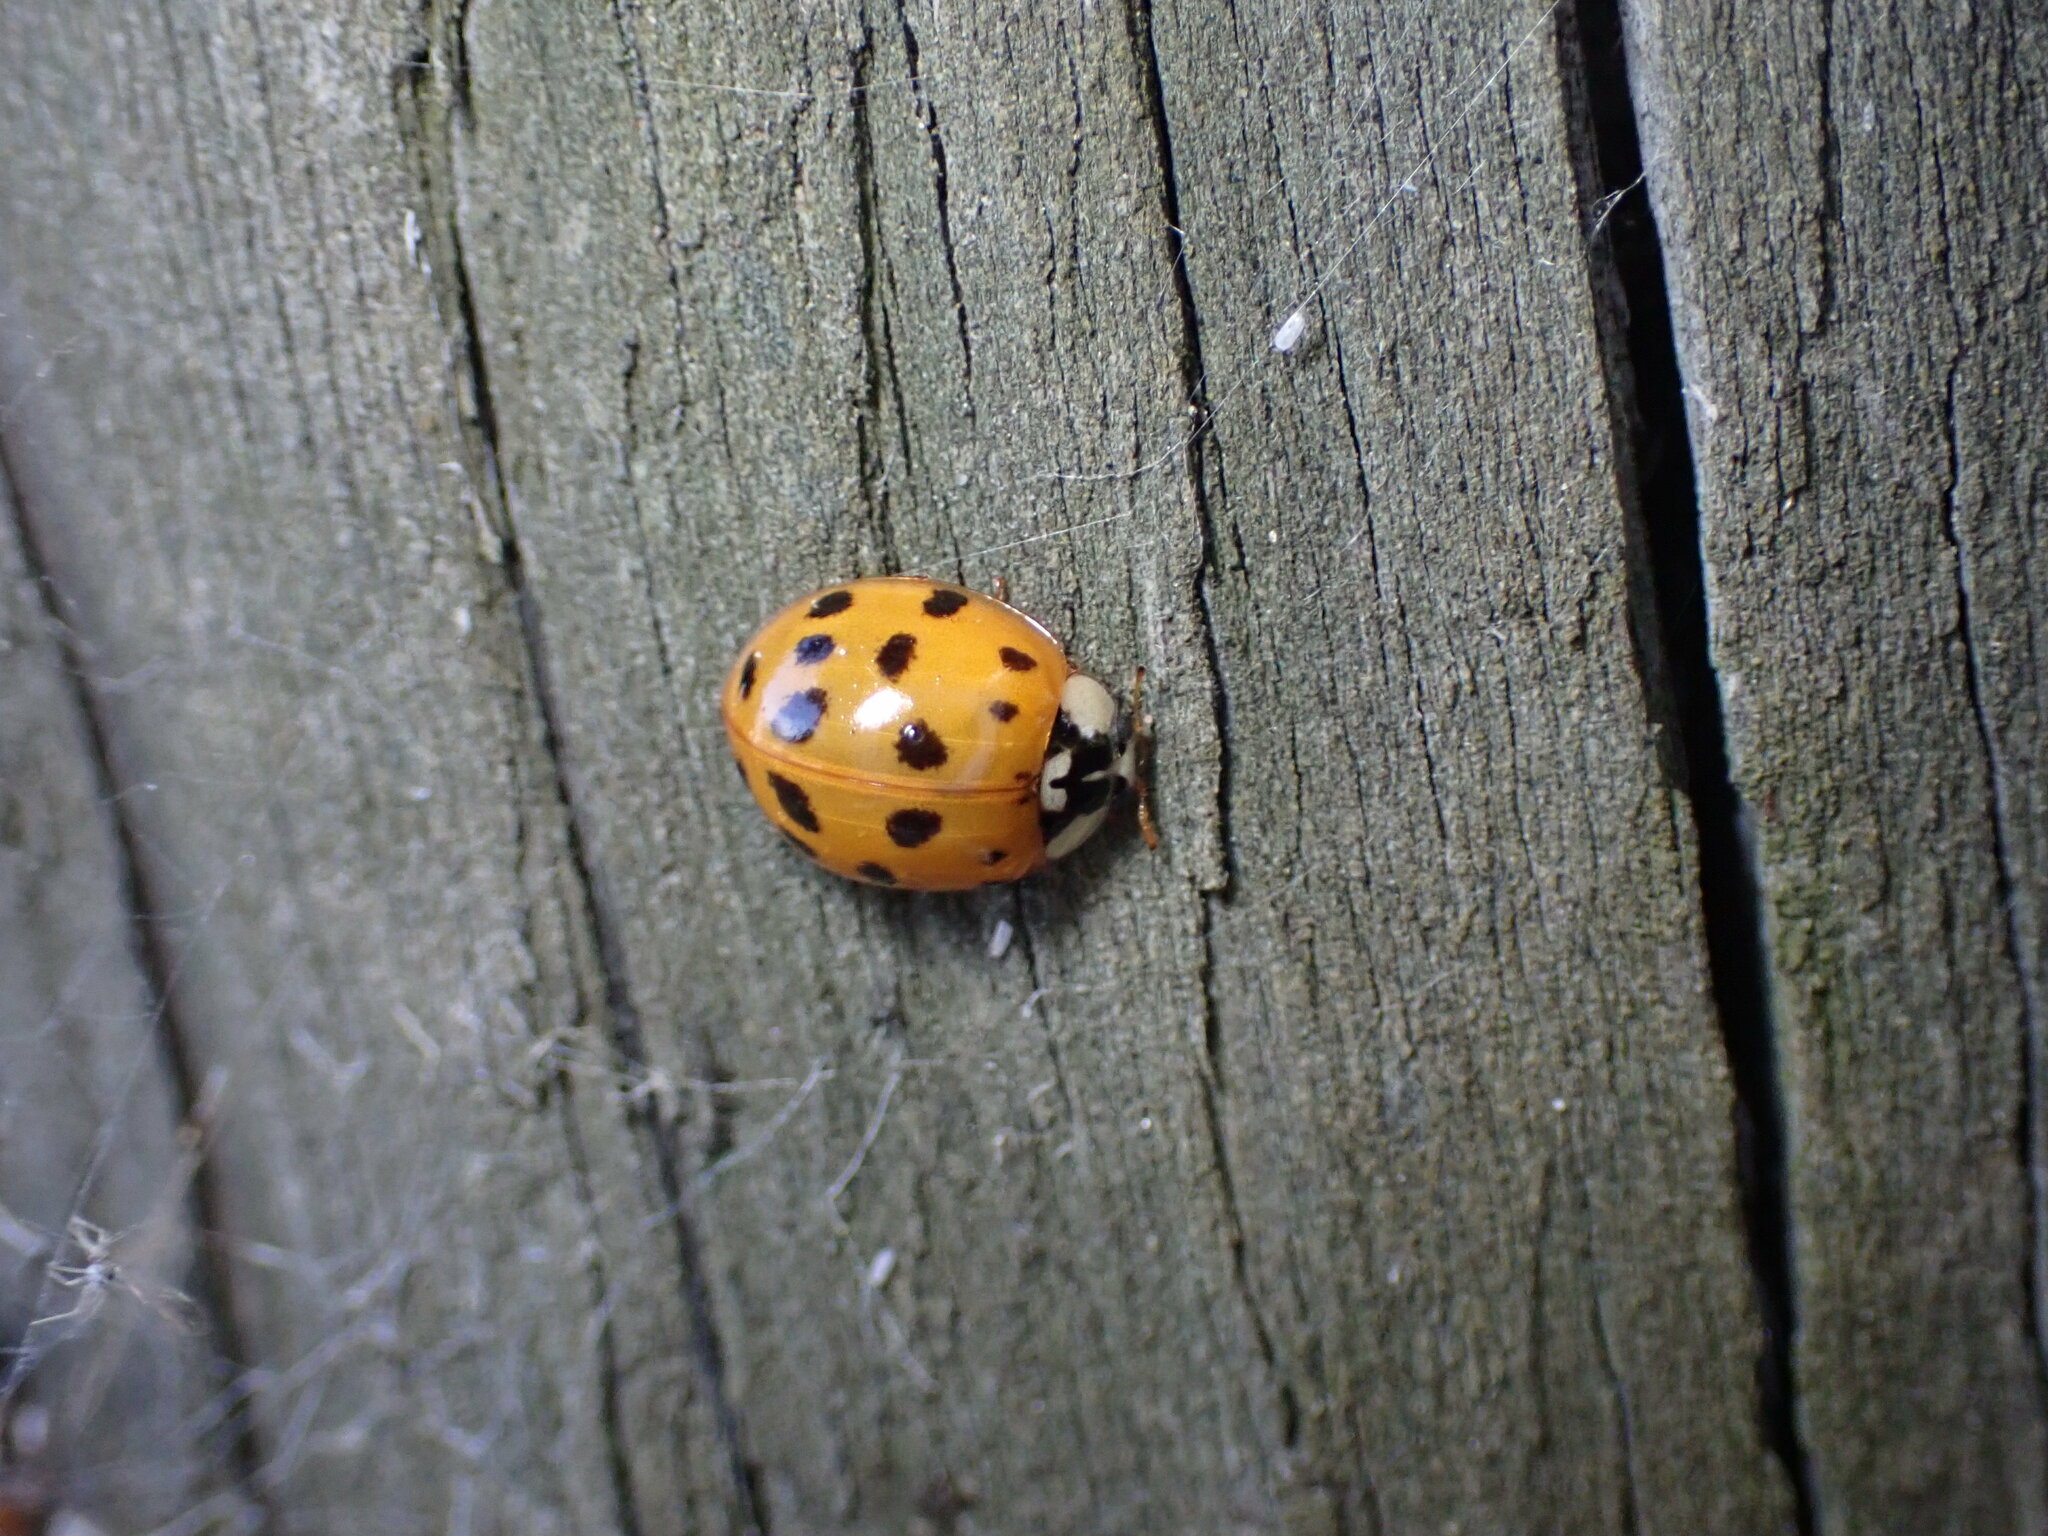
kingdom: Animalia
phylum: Arthropoda
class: Insecta
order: Coleoptera
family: Coccinellidae
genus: Harmonia
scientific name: Harmonia axyridis
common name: Harlequin ladybird
